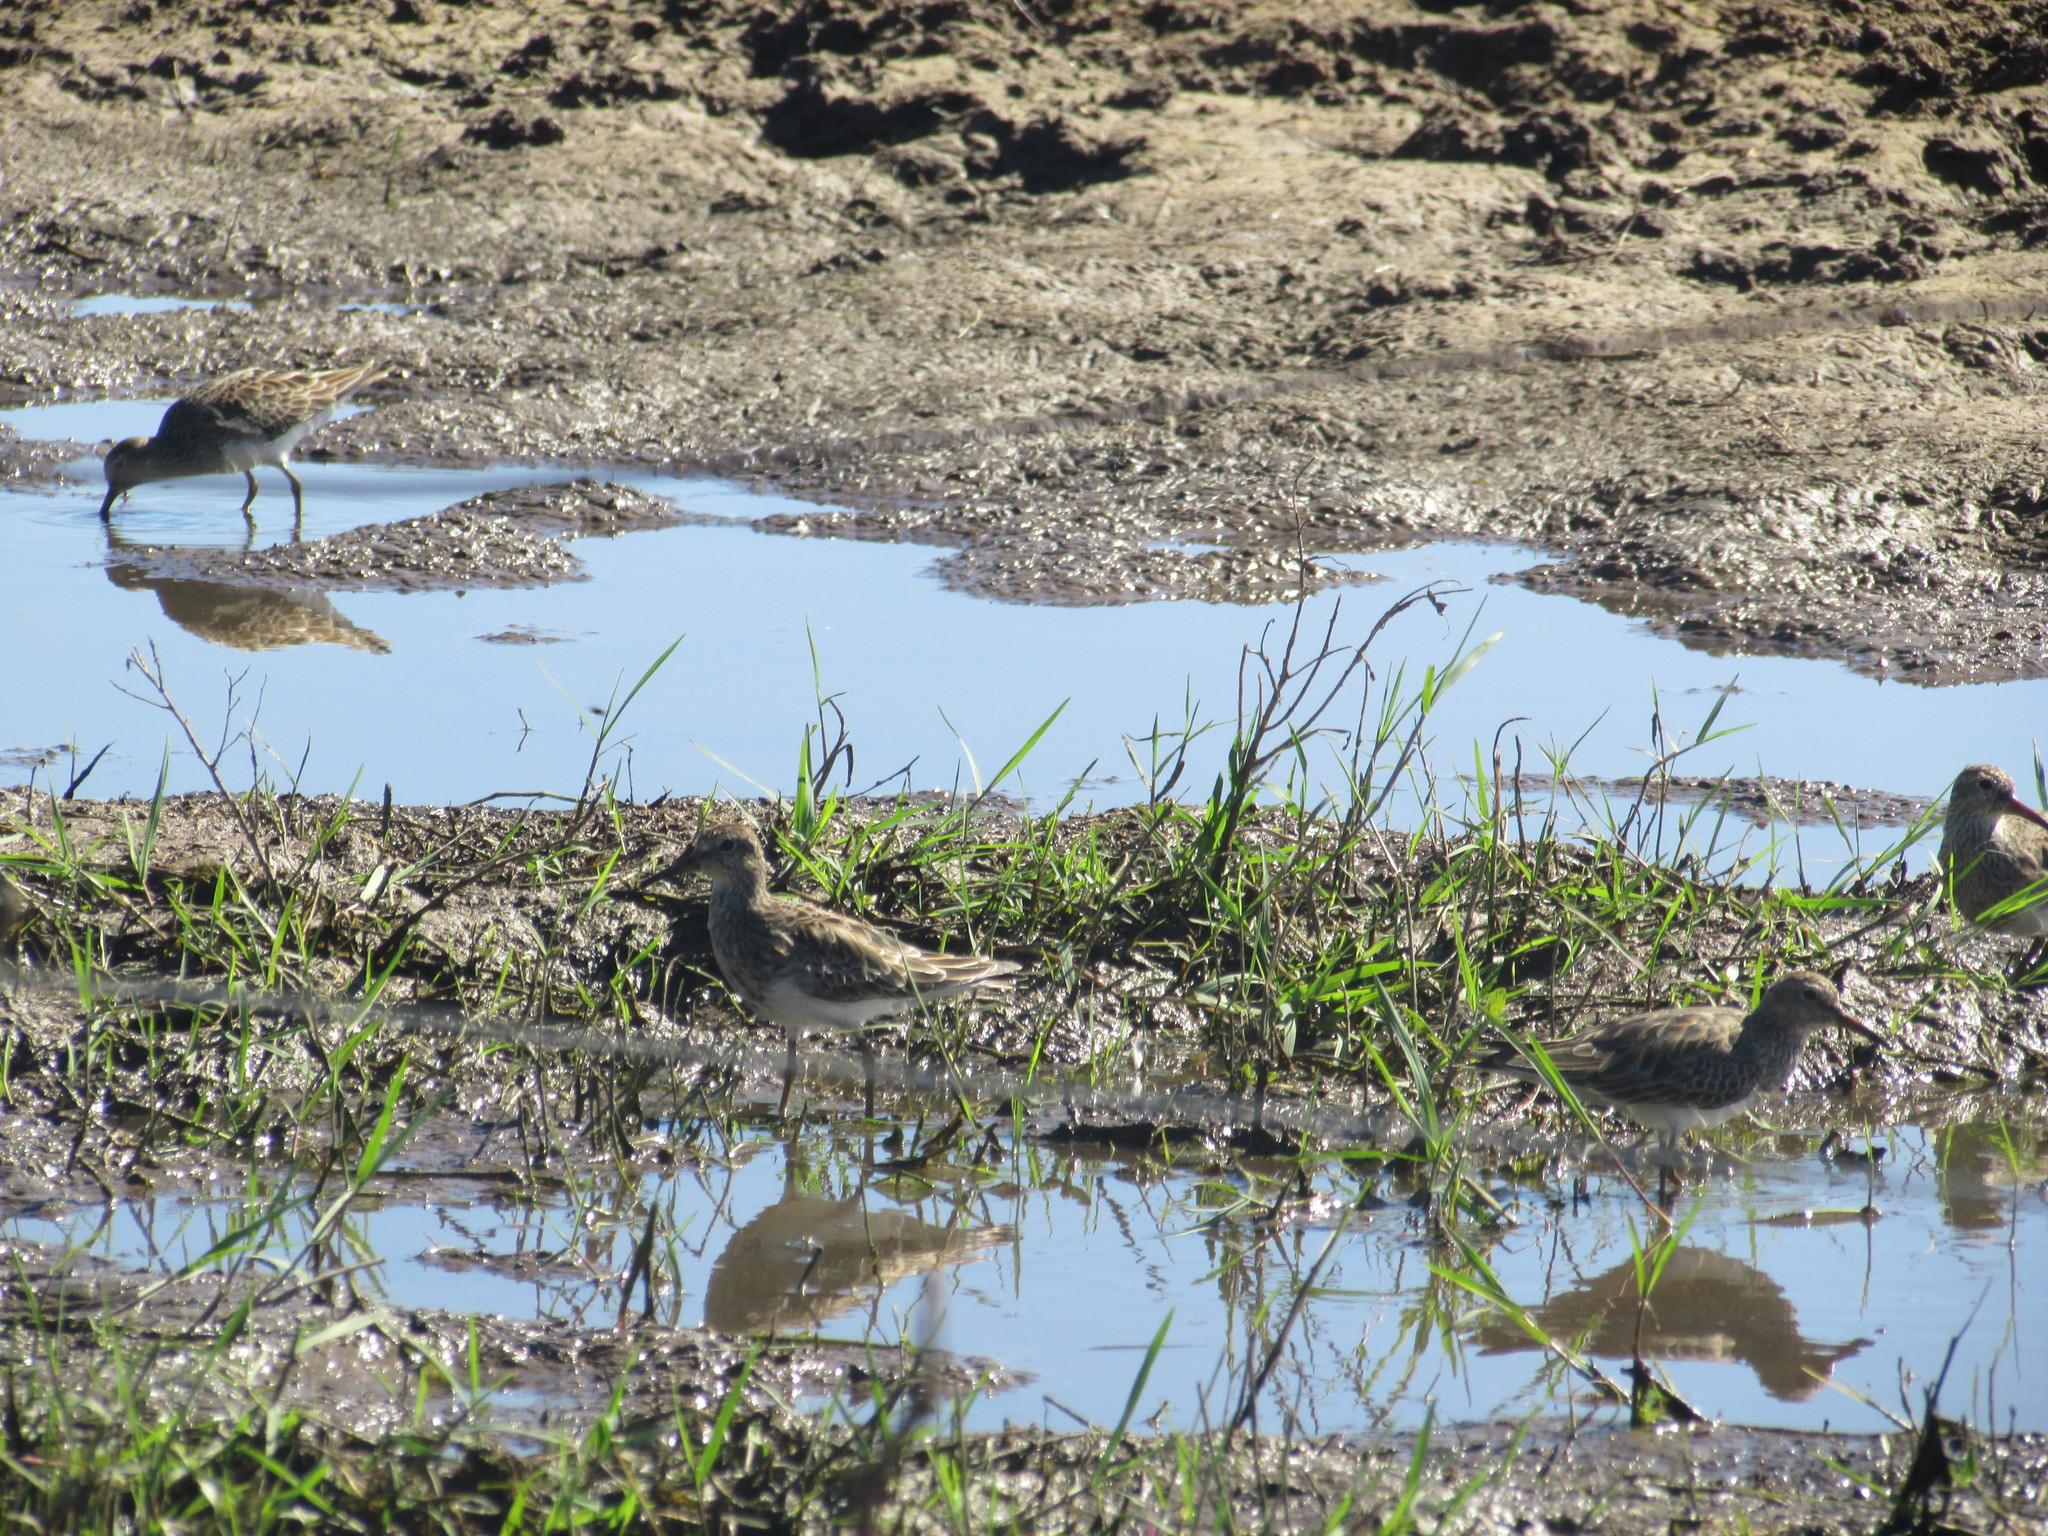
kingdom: Animalia
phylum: Chordata
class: Aves
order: Charadriiformes
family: Scolopacidae
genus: Calidris
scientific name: Calidris melanotos
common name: Pectoral sandpiper
